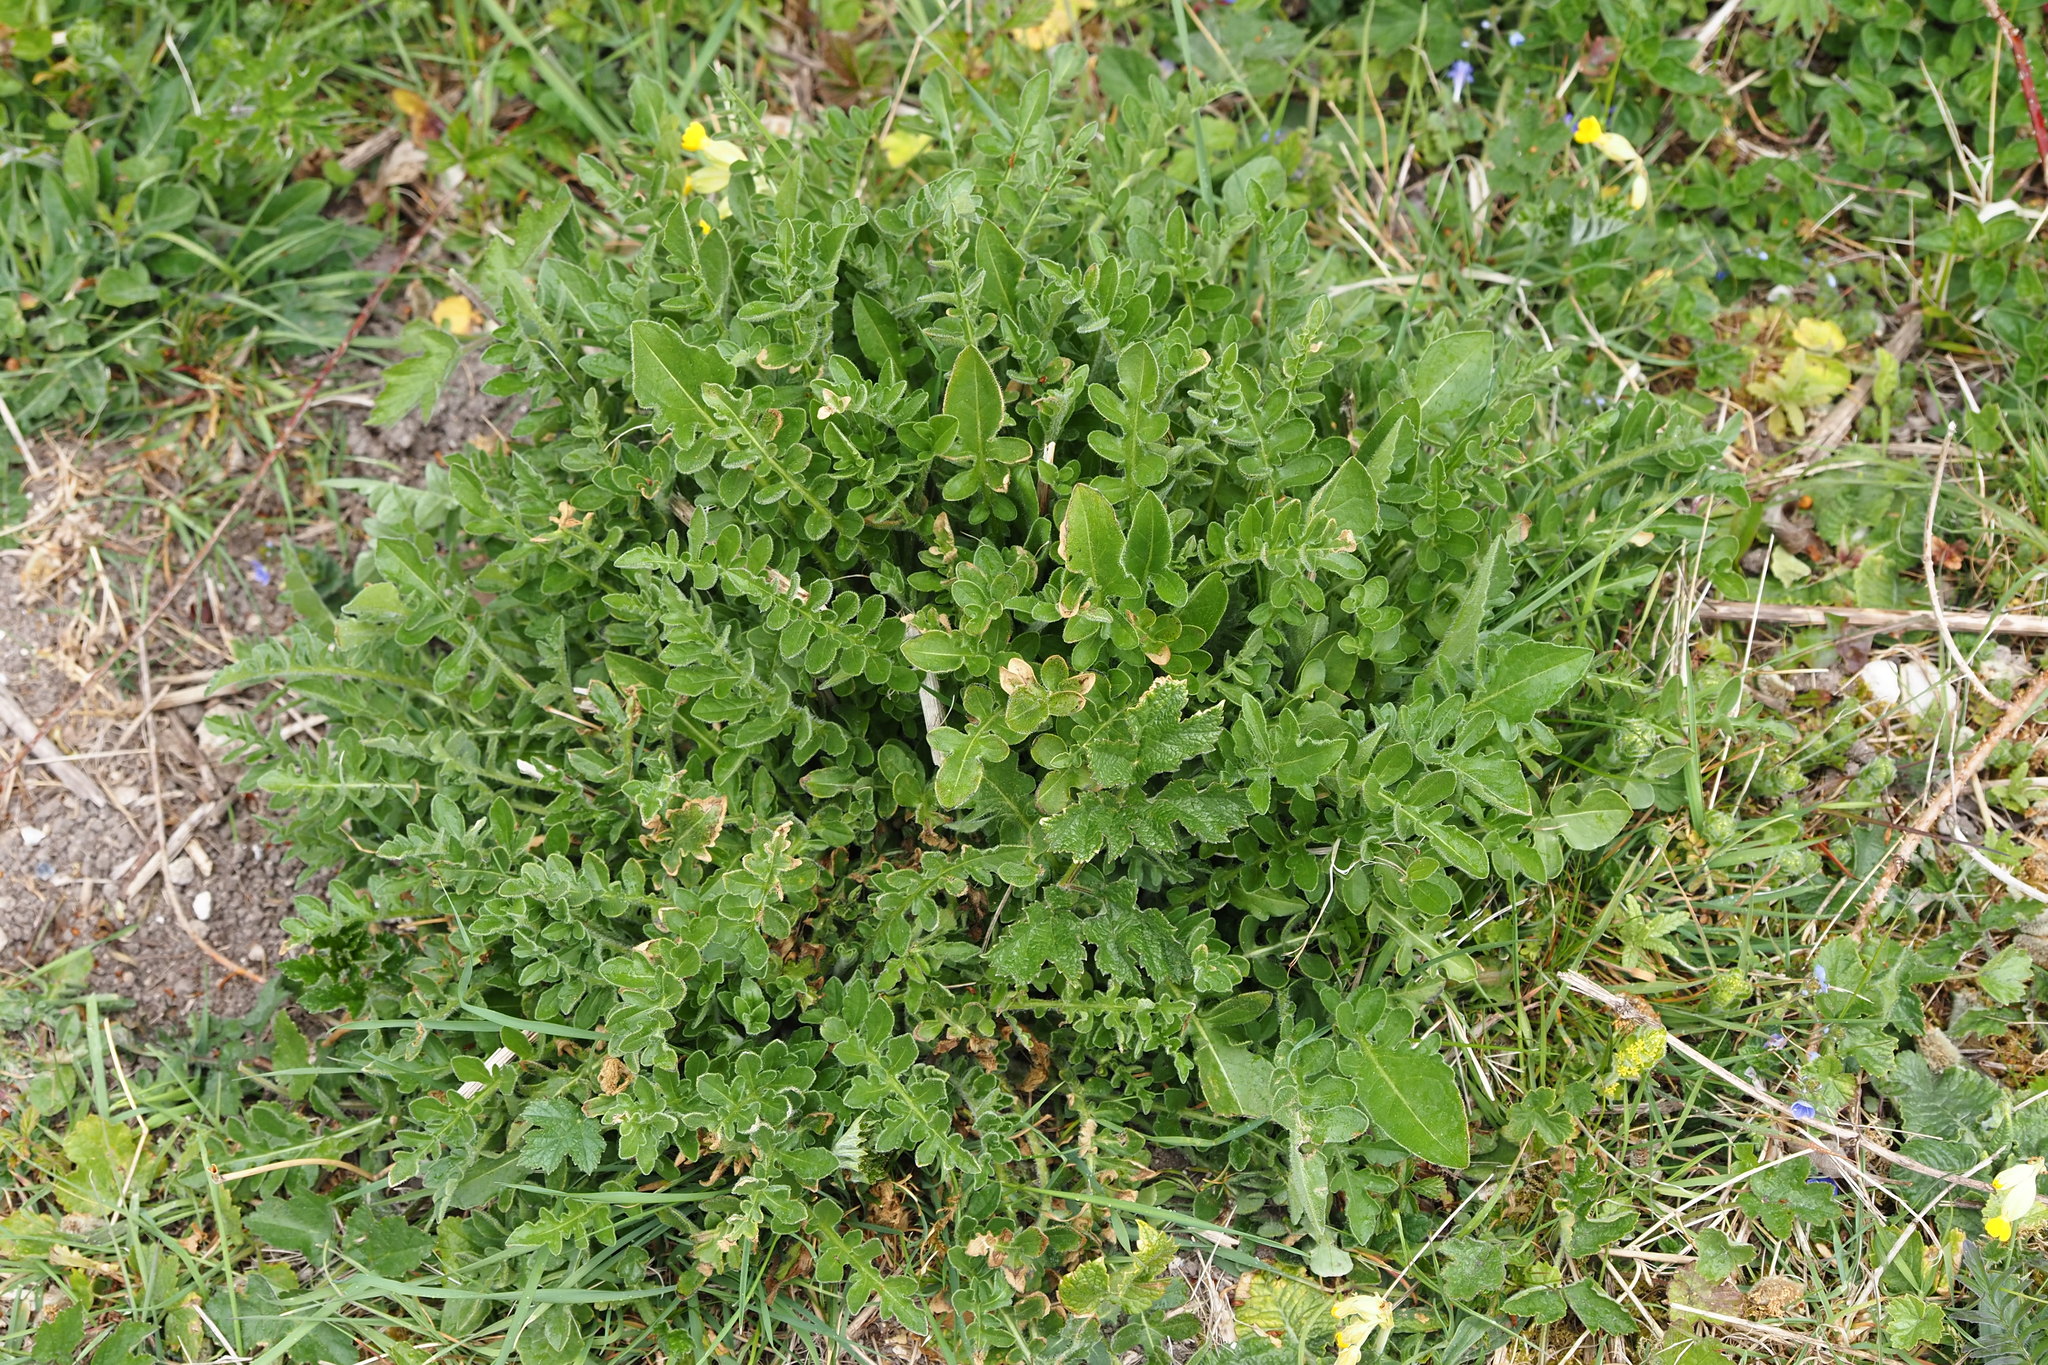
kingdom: Plantae
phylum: Tracheophyta
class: Magnoliopsida
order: Asterales
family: Asteraceae
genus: Centaurea
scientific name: Centaurea scabiosa
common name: Greater knapweed
